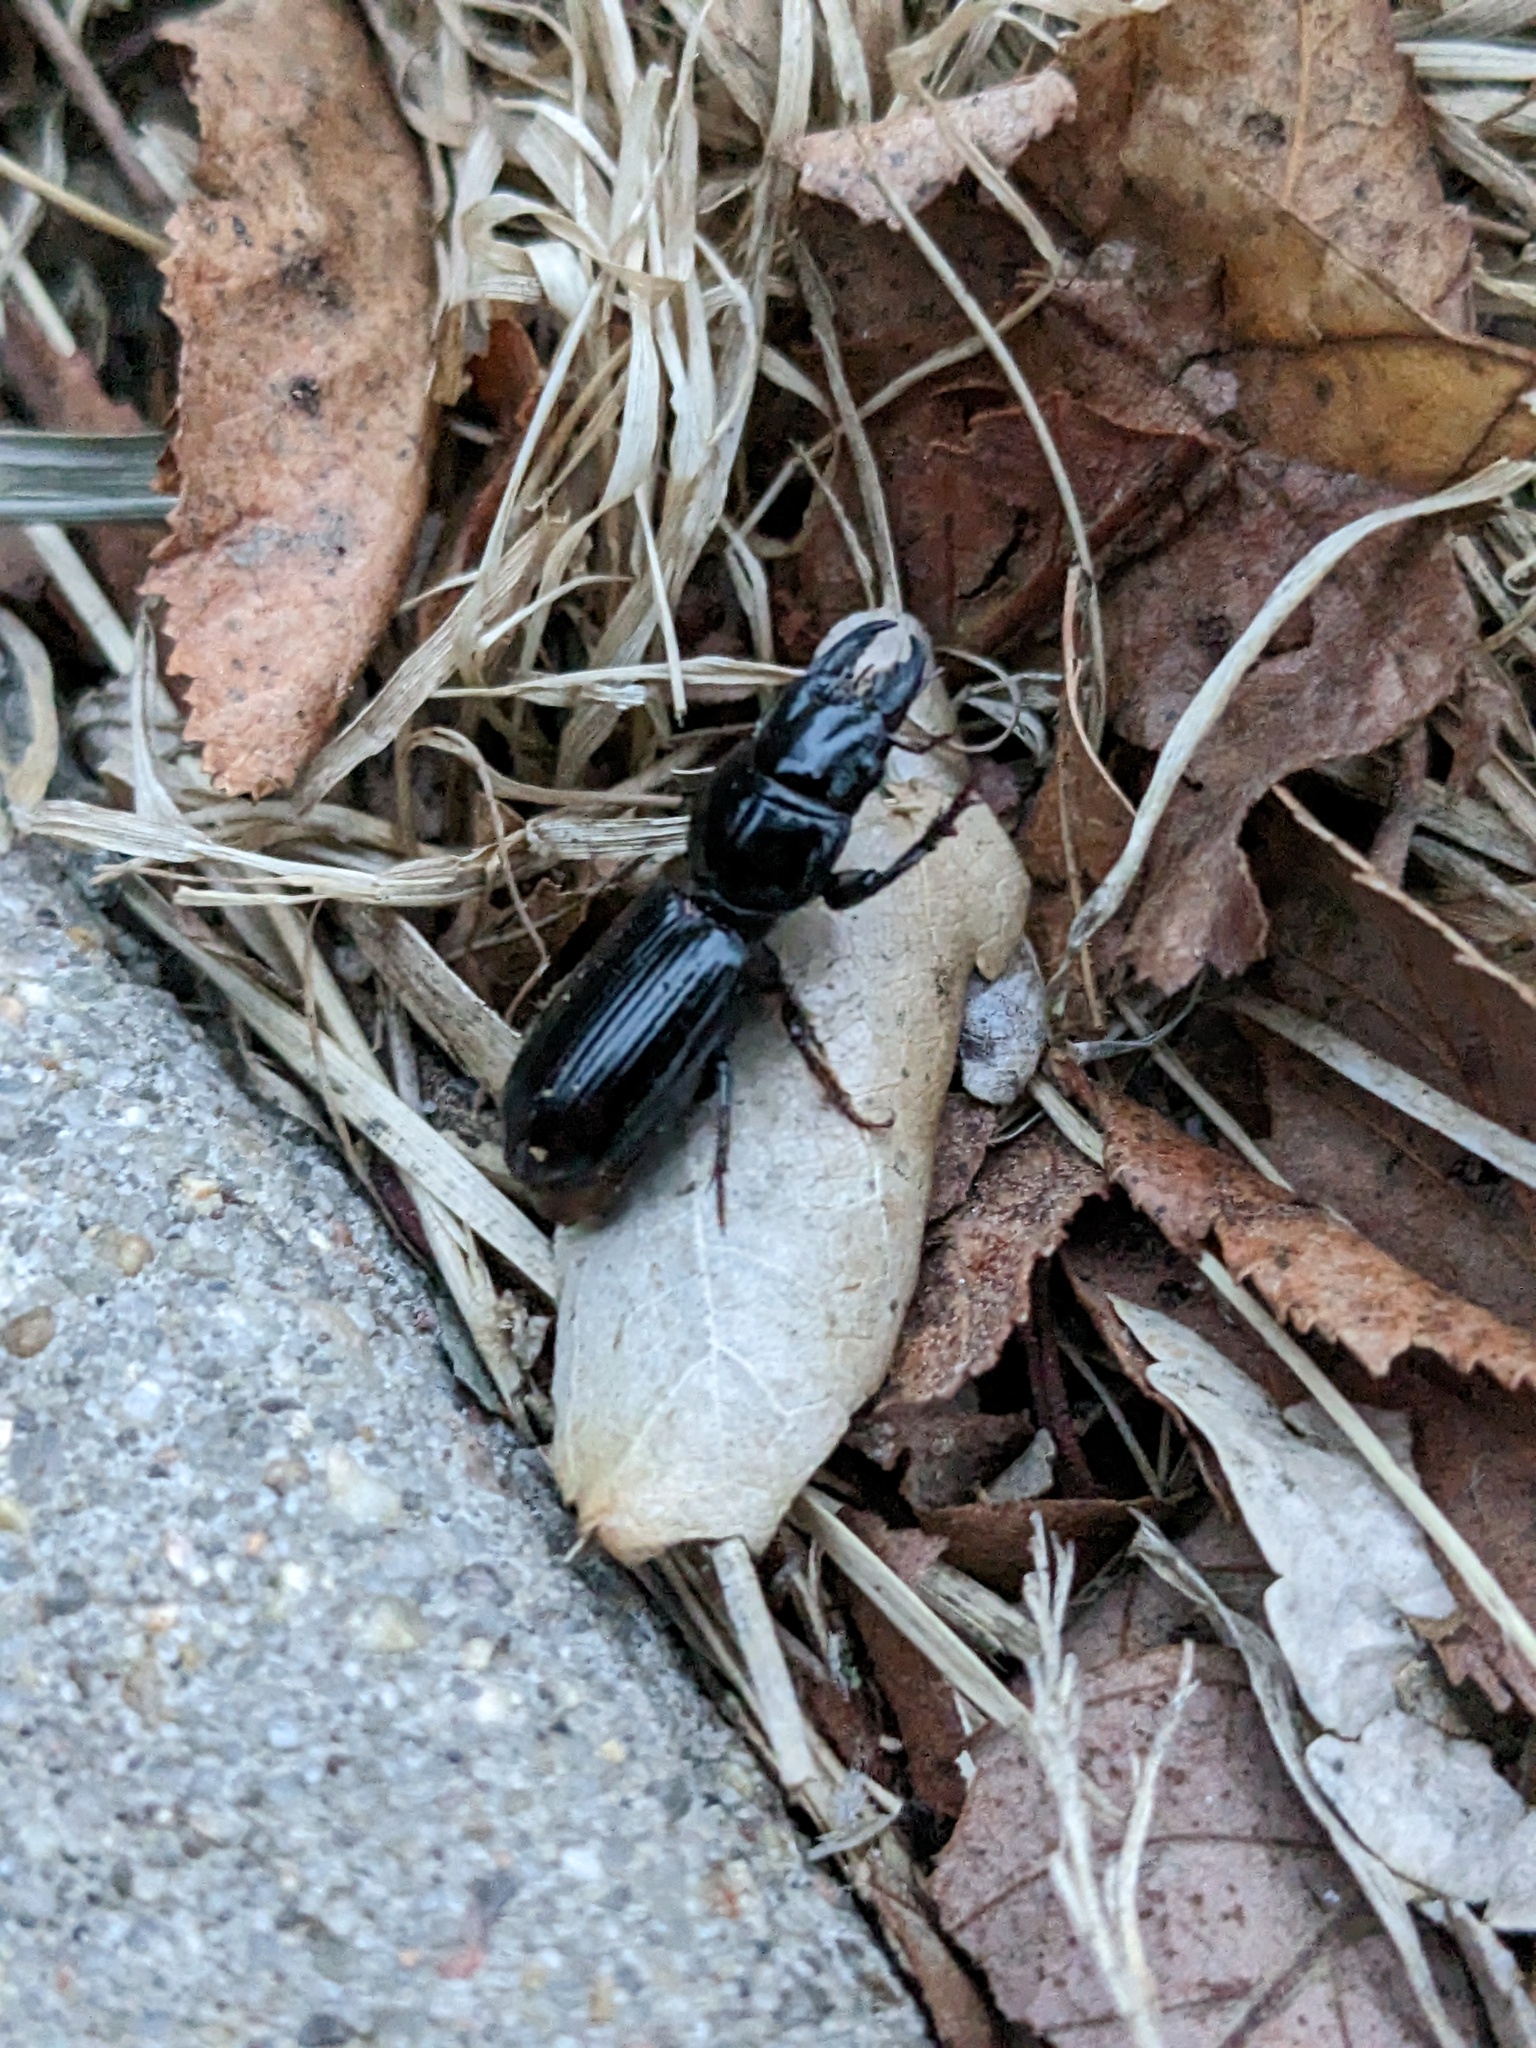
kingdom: Animalia
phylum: Arthropoda
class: Insecta
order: Coleoptera
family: Carabidae
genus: Scarites
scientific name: Scarites subterraneus
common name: Big-headed ground beetle
